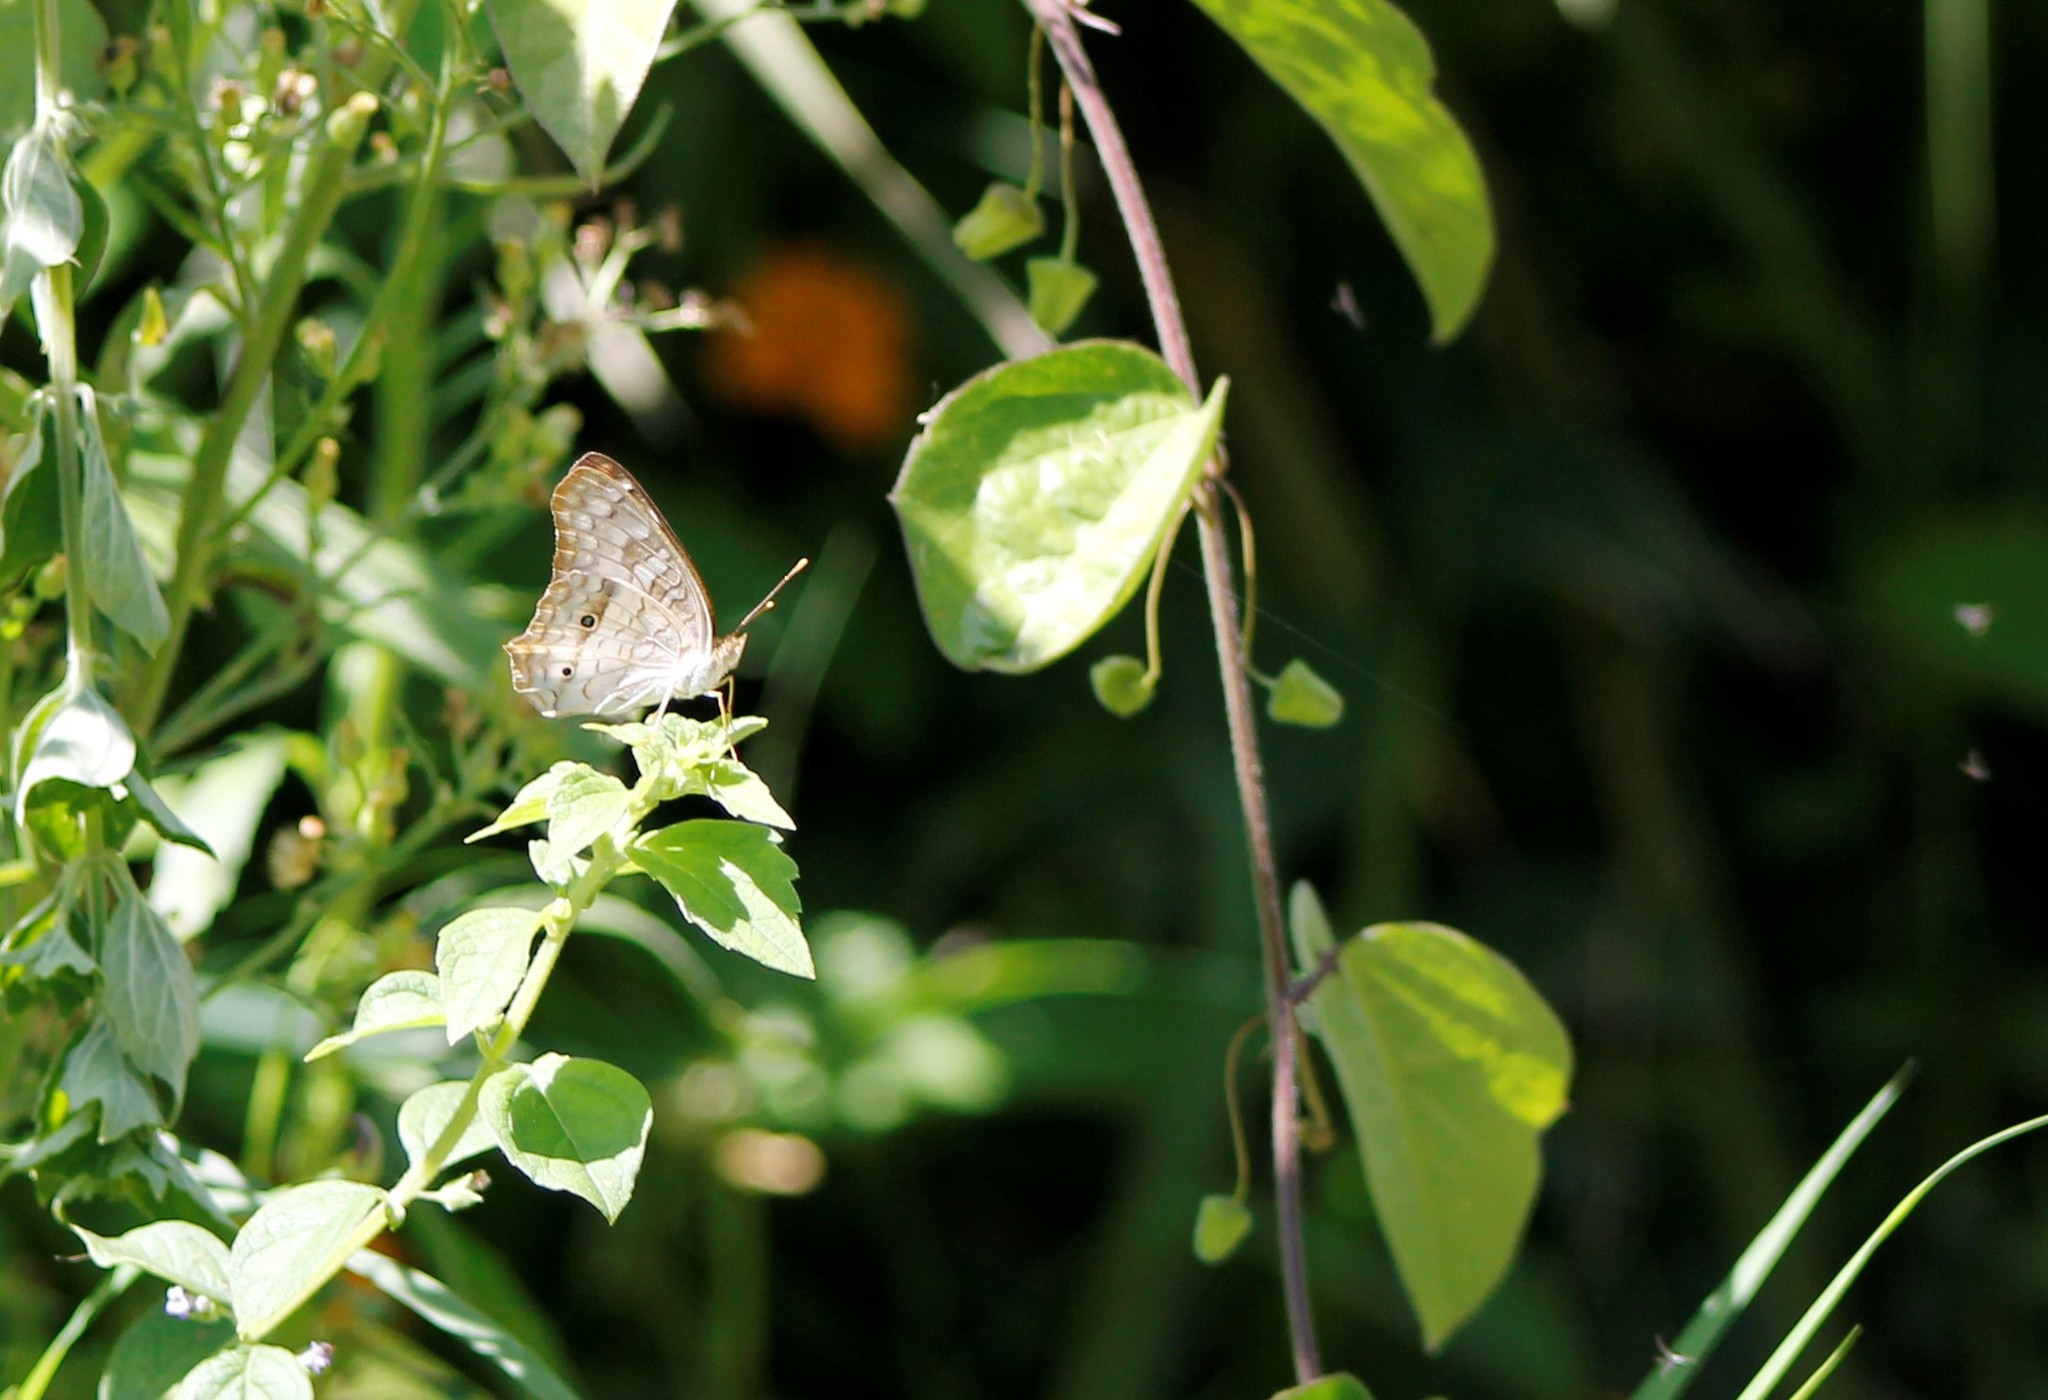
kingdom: Animalia
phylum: Arthropoda
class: Insecta
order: Lepidoptera
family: Nymphalidae
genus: Anartia
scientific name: Anartia jatrophae
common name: White peacock
